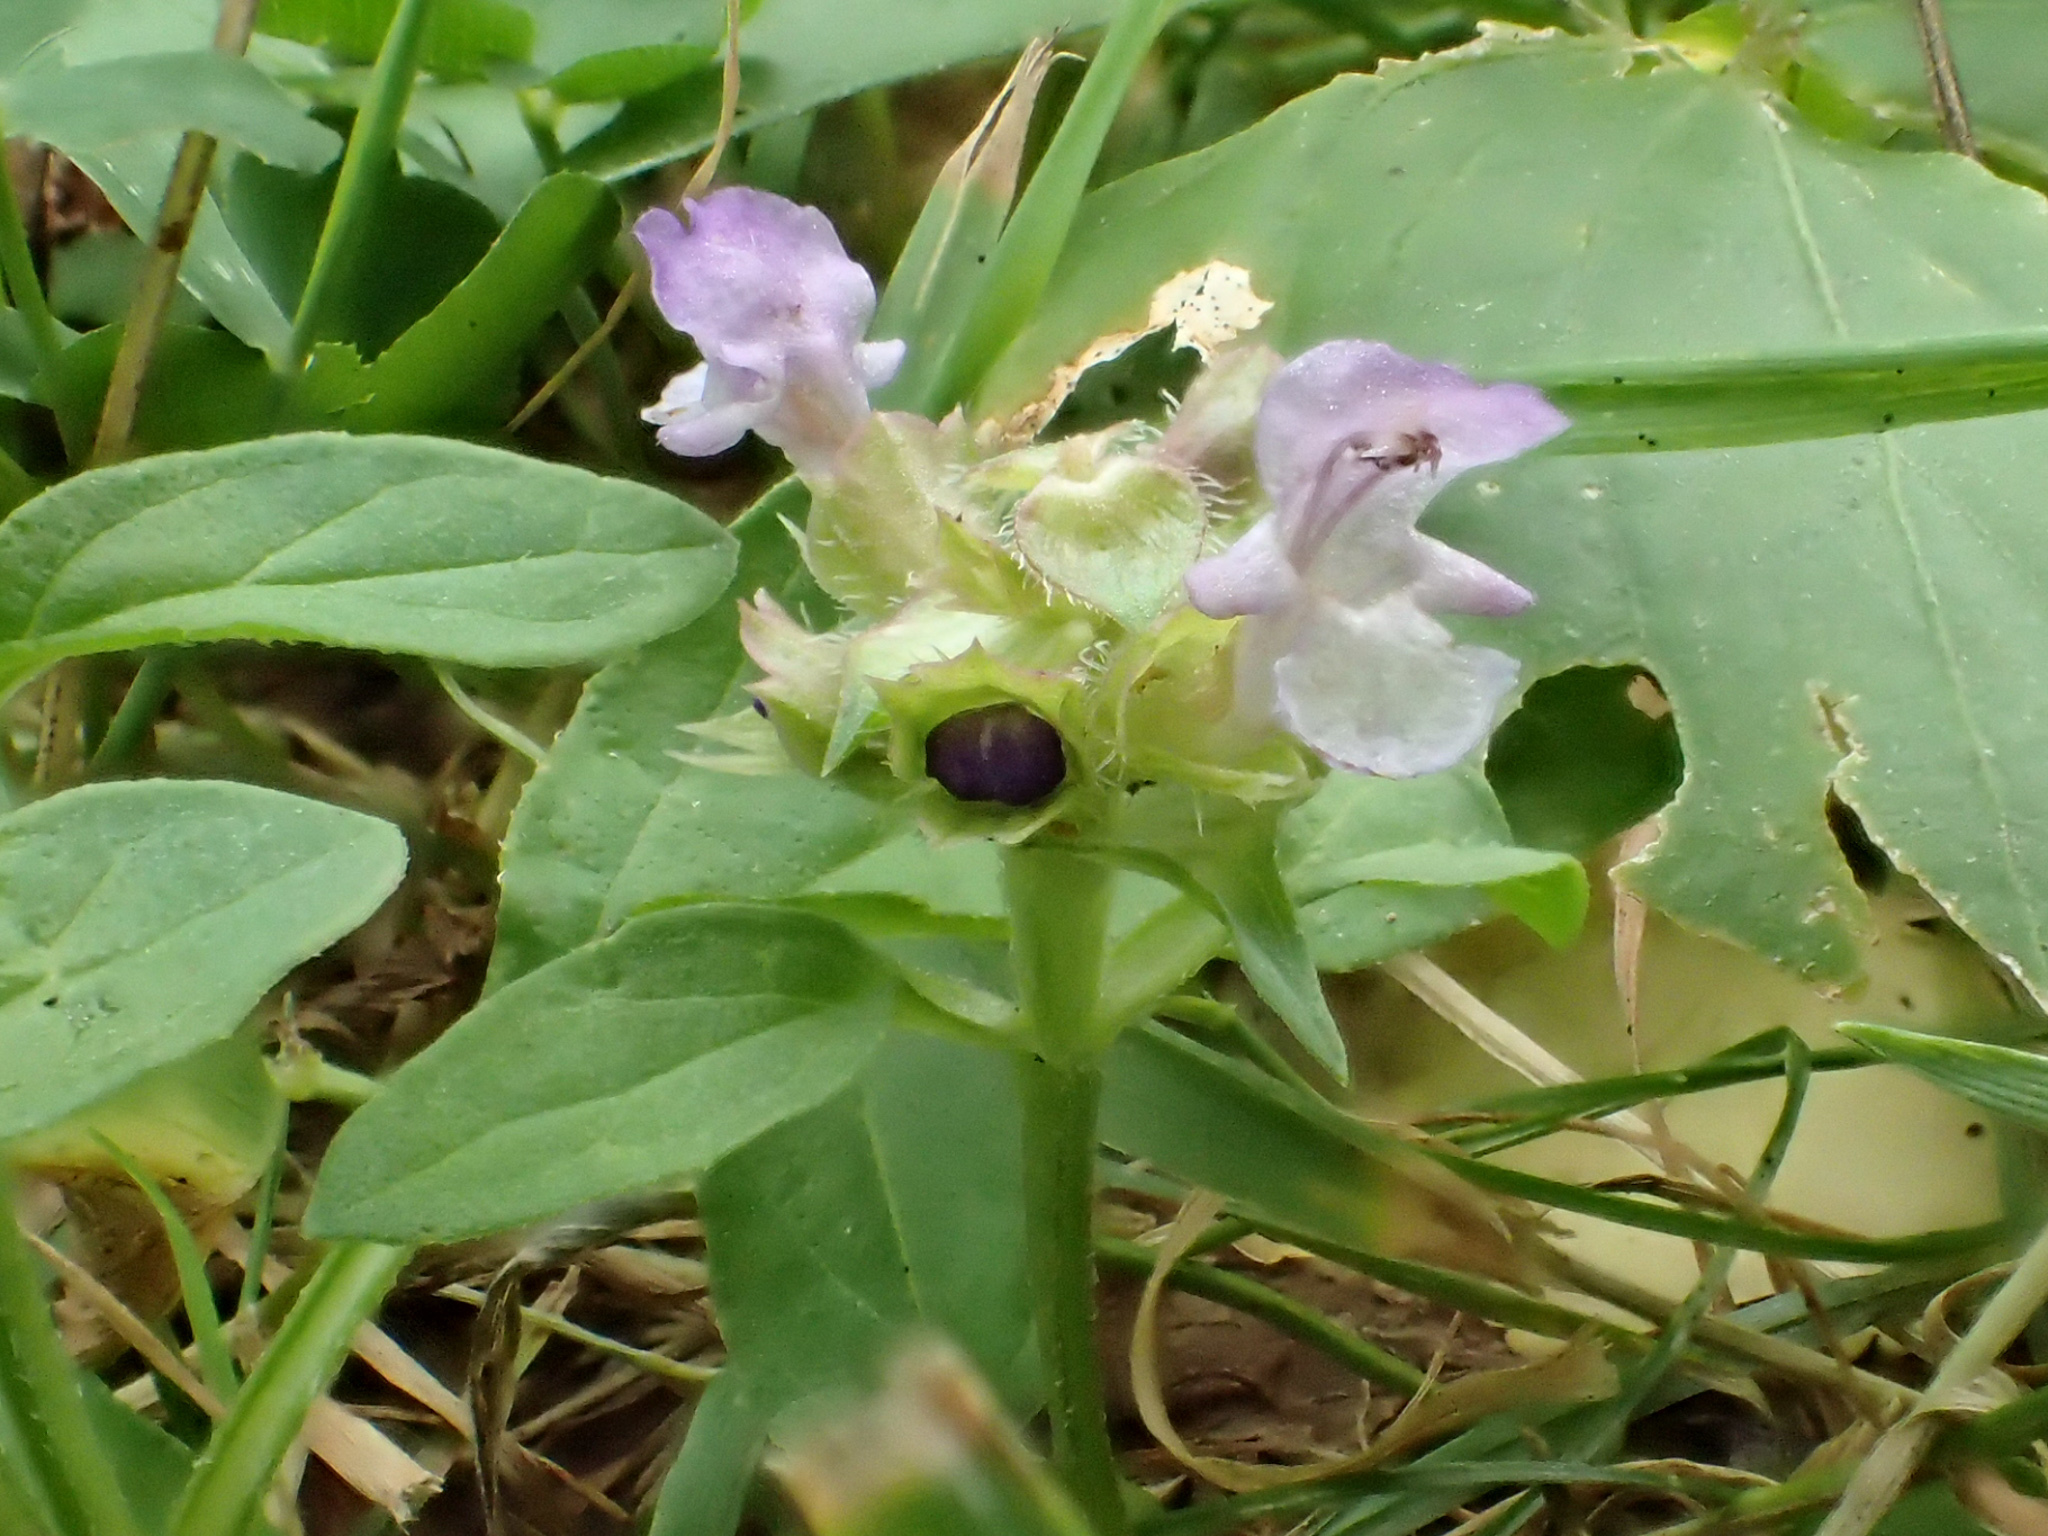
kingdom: Plantae
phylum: Tracheophyta
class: Magnoliopsida
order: Lamiales
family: Lamiaceae
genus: Prunella
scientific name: Prunella vulgaris
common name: Heal-all
